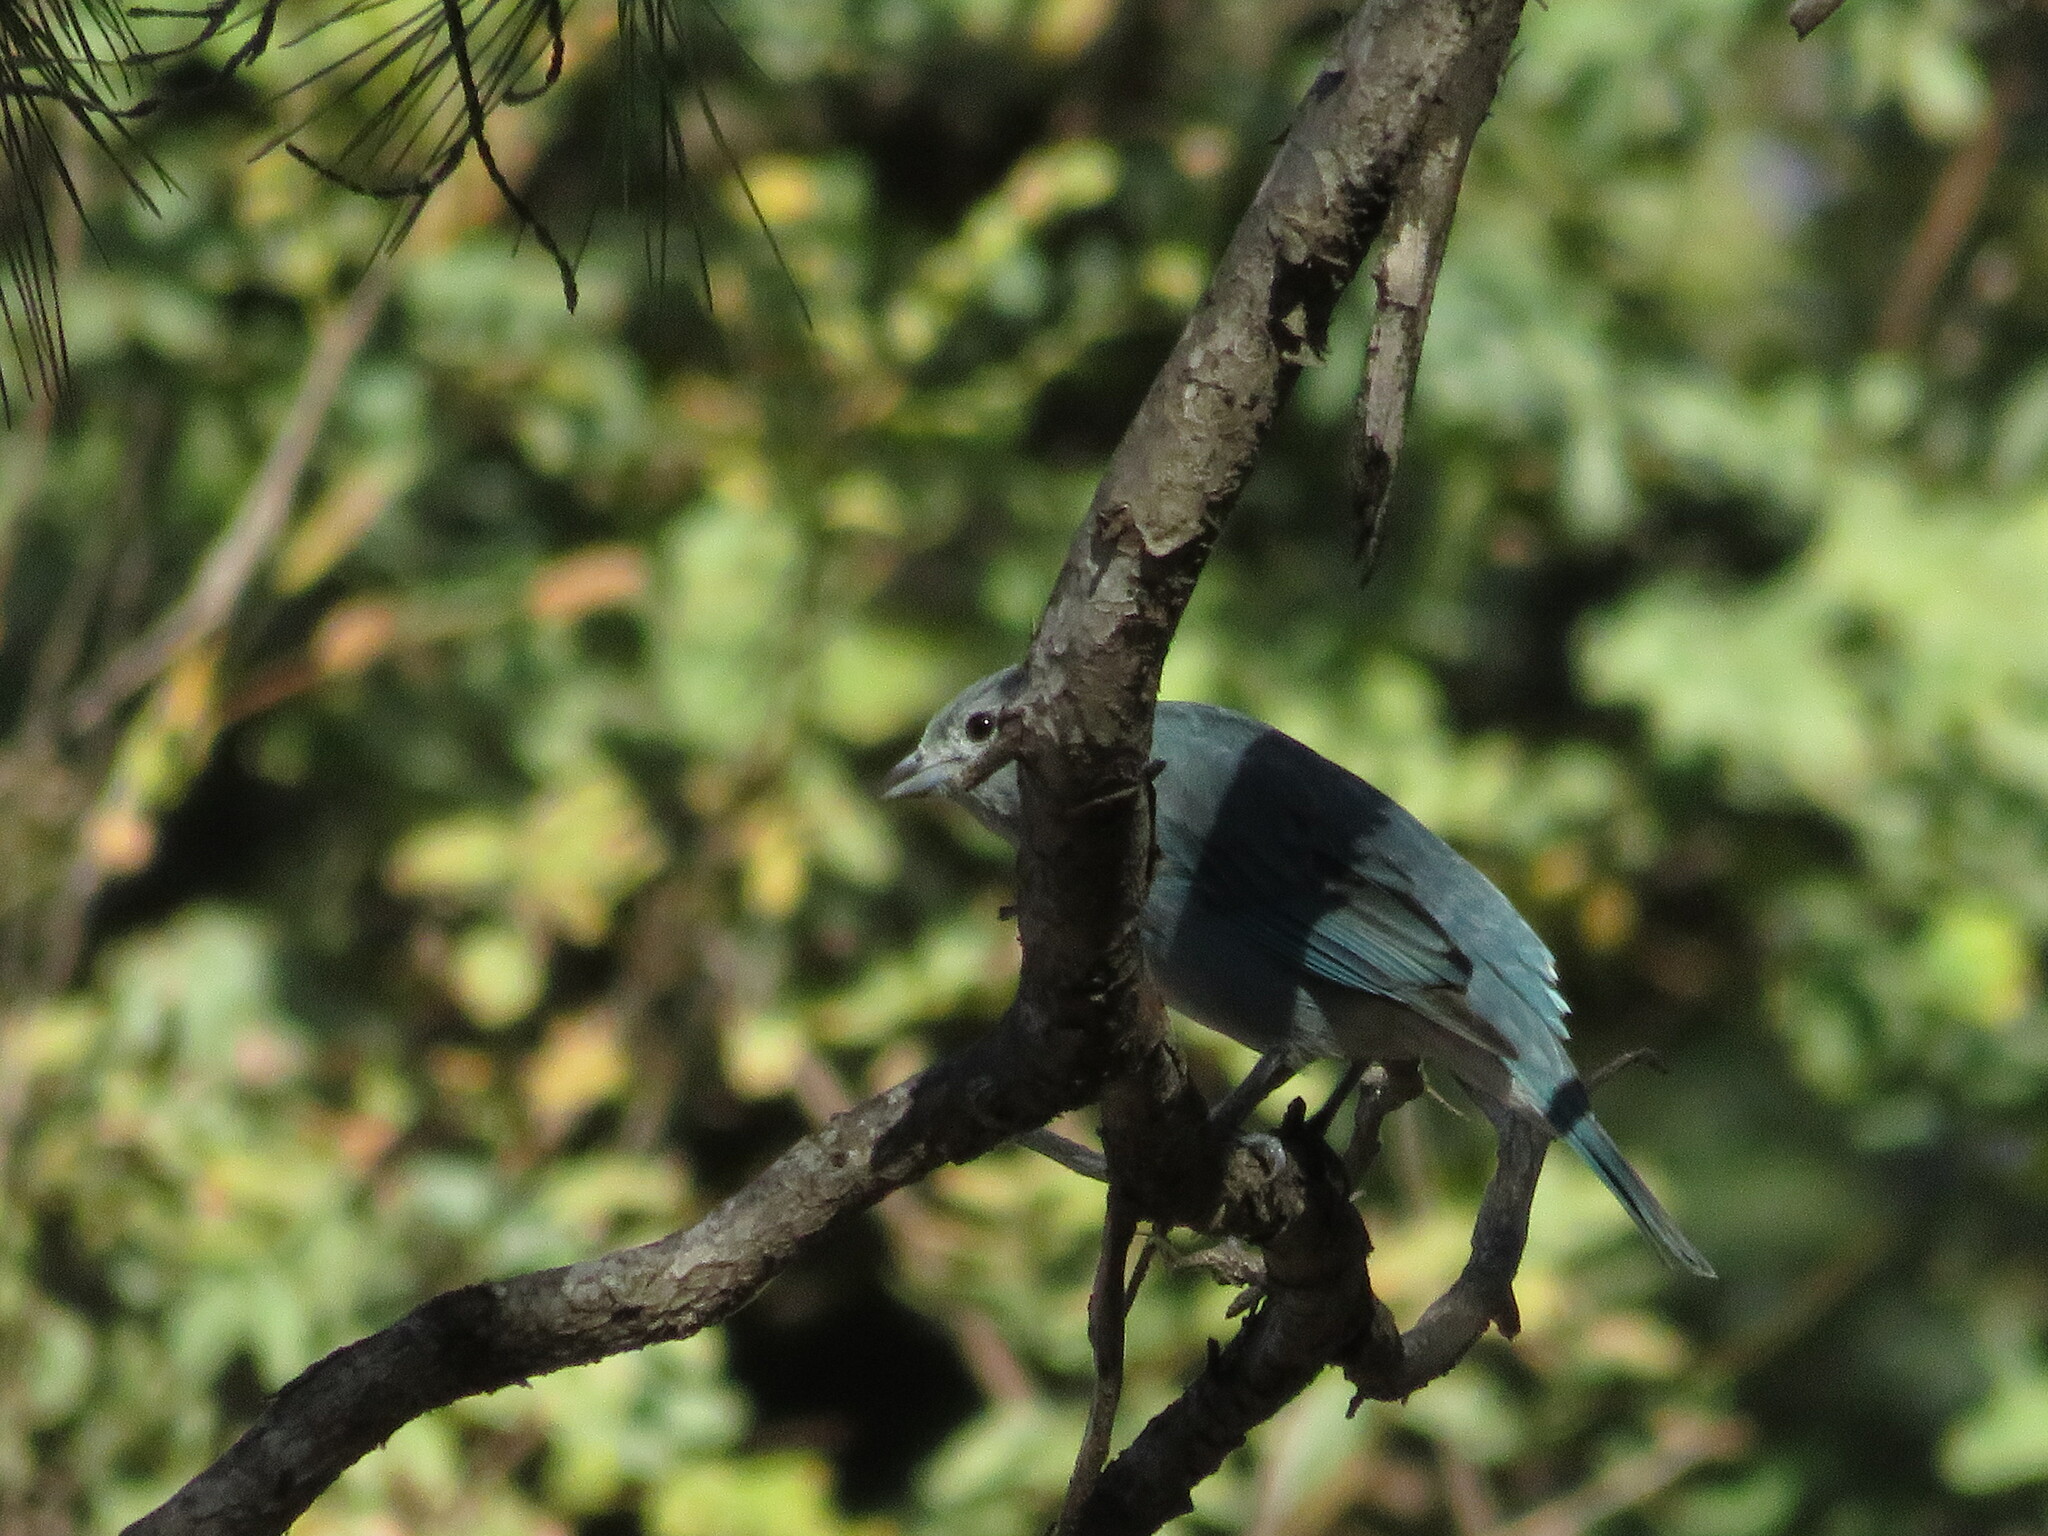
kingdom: Animalia
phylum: Chordata
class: Aves
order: Passeriformes
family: Thraupidae
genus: Thraupis
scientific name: Thraupis sayaca
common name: Sayaca tanager
